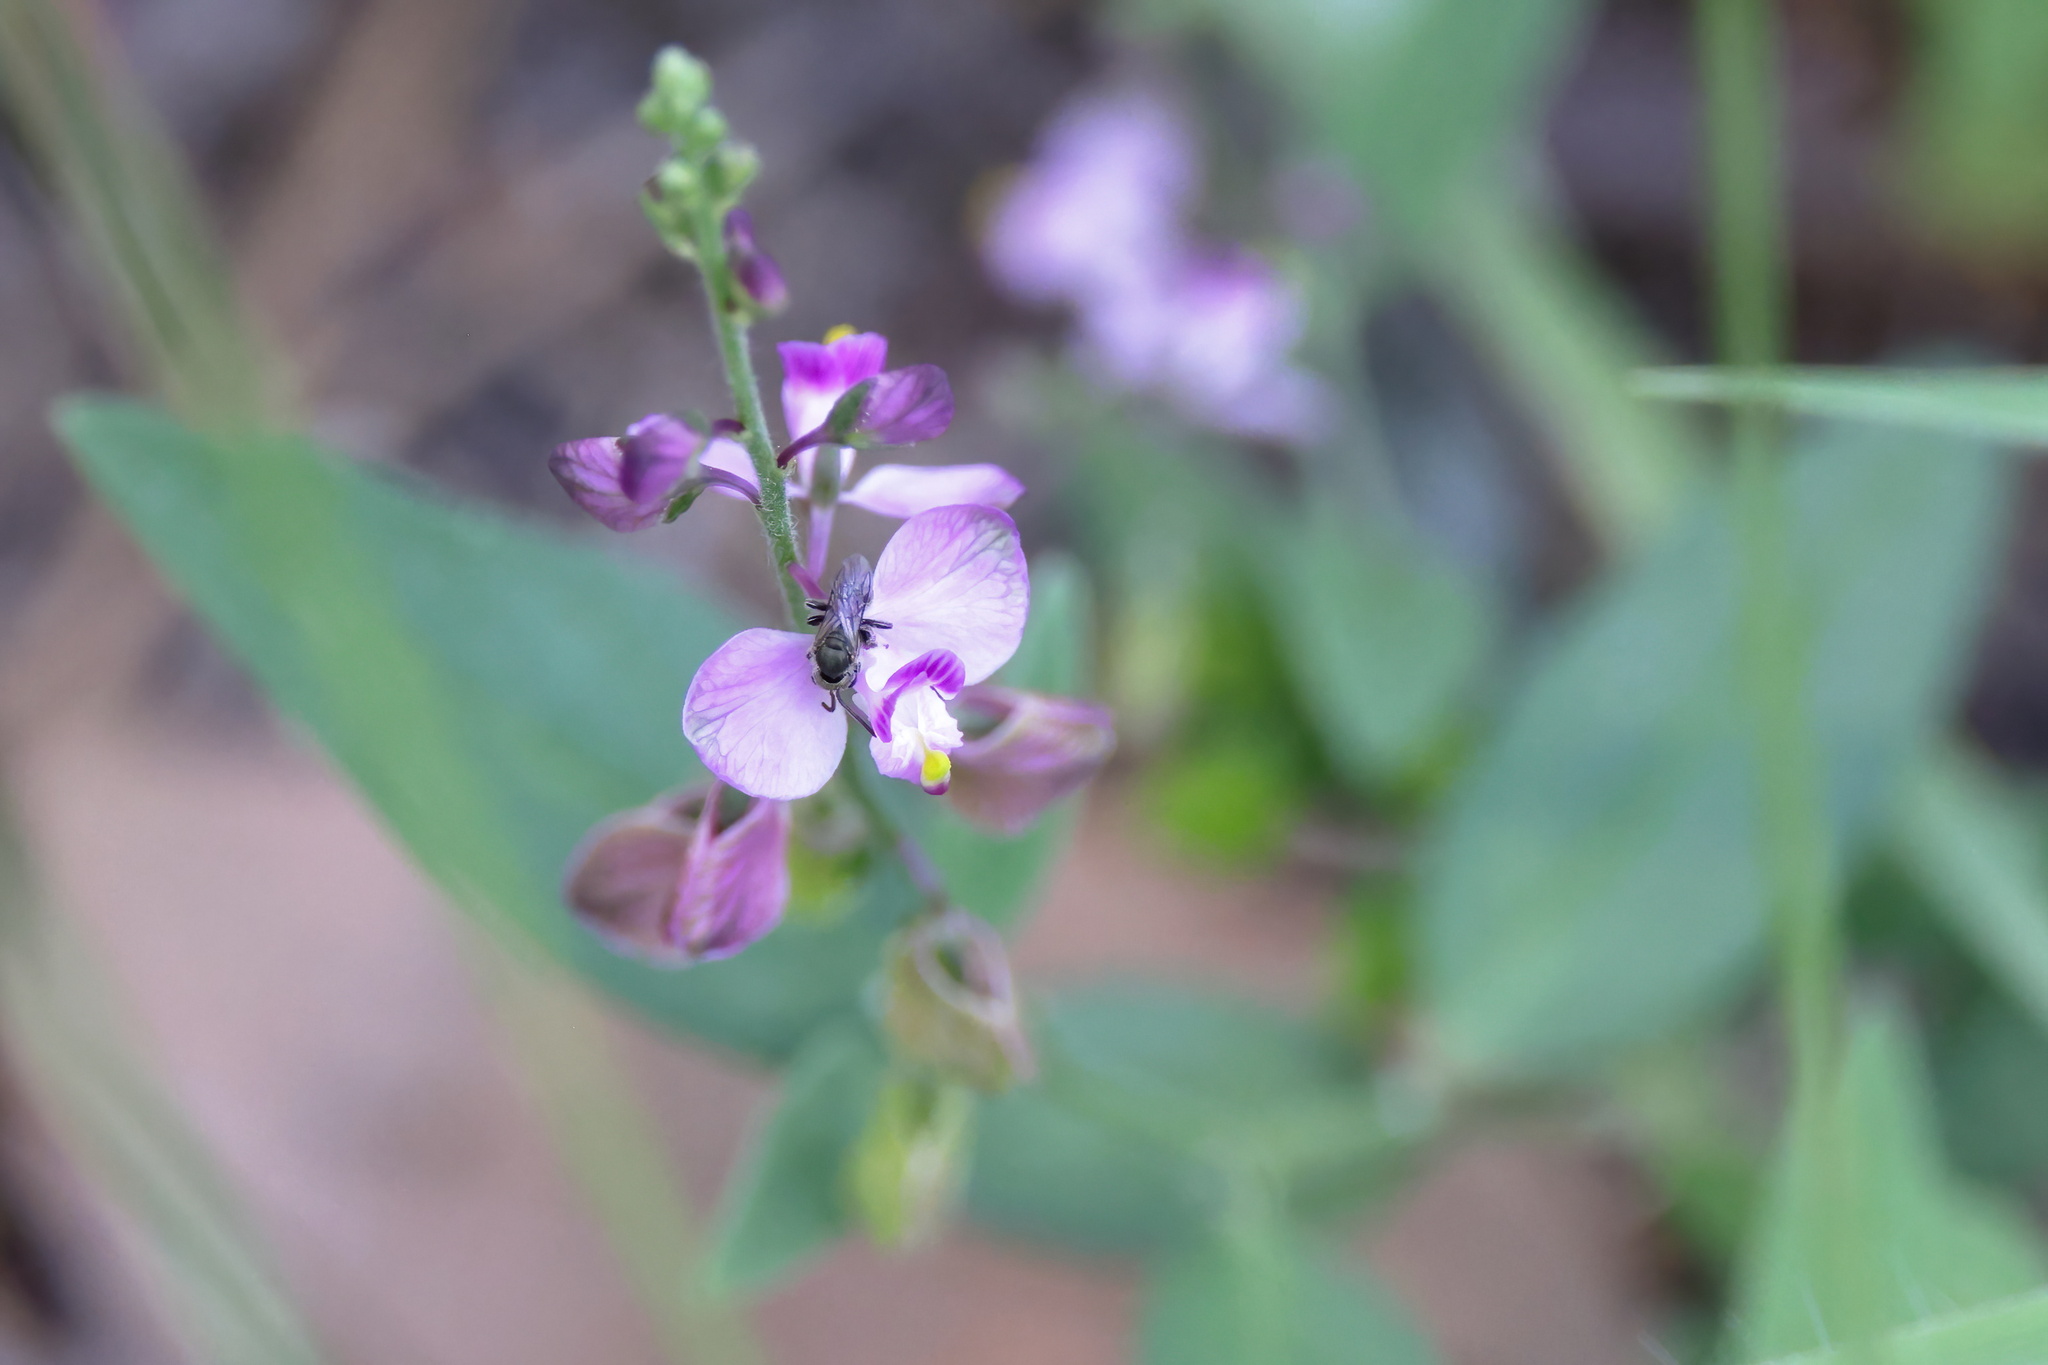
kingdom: Plantae
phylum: Tracheophyta
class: Magnoliopsida
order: Fabales
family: Polygalaceae
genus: Asemeia
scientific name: Asemeia grandiflora
